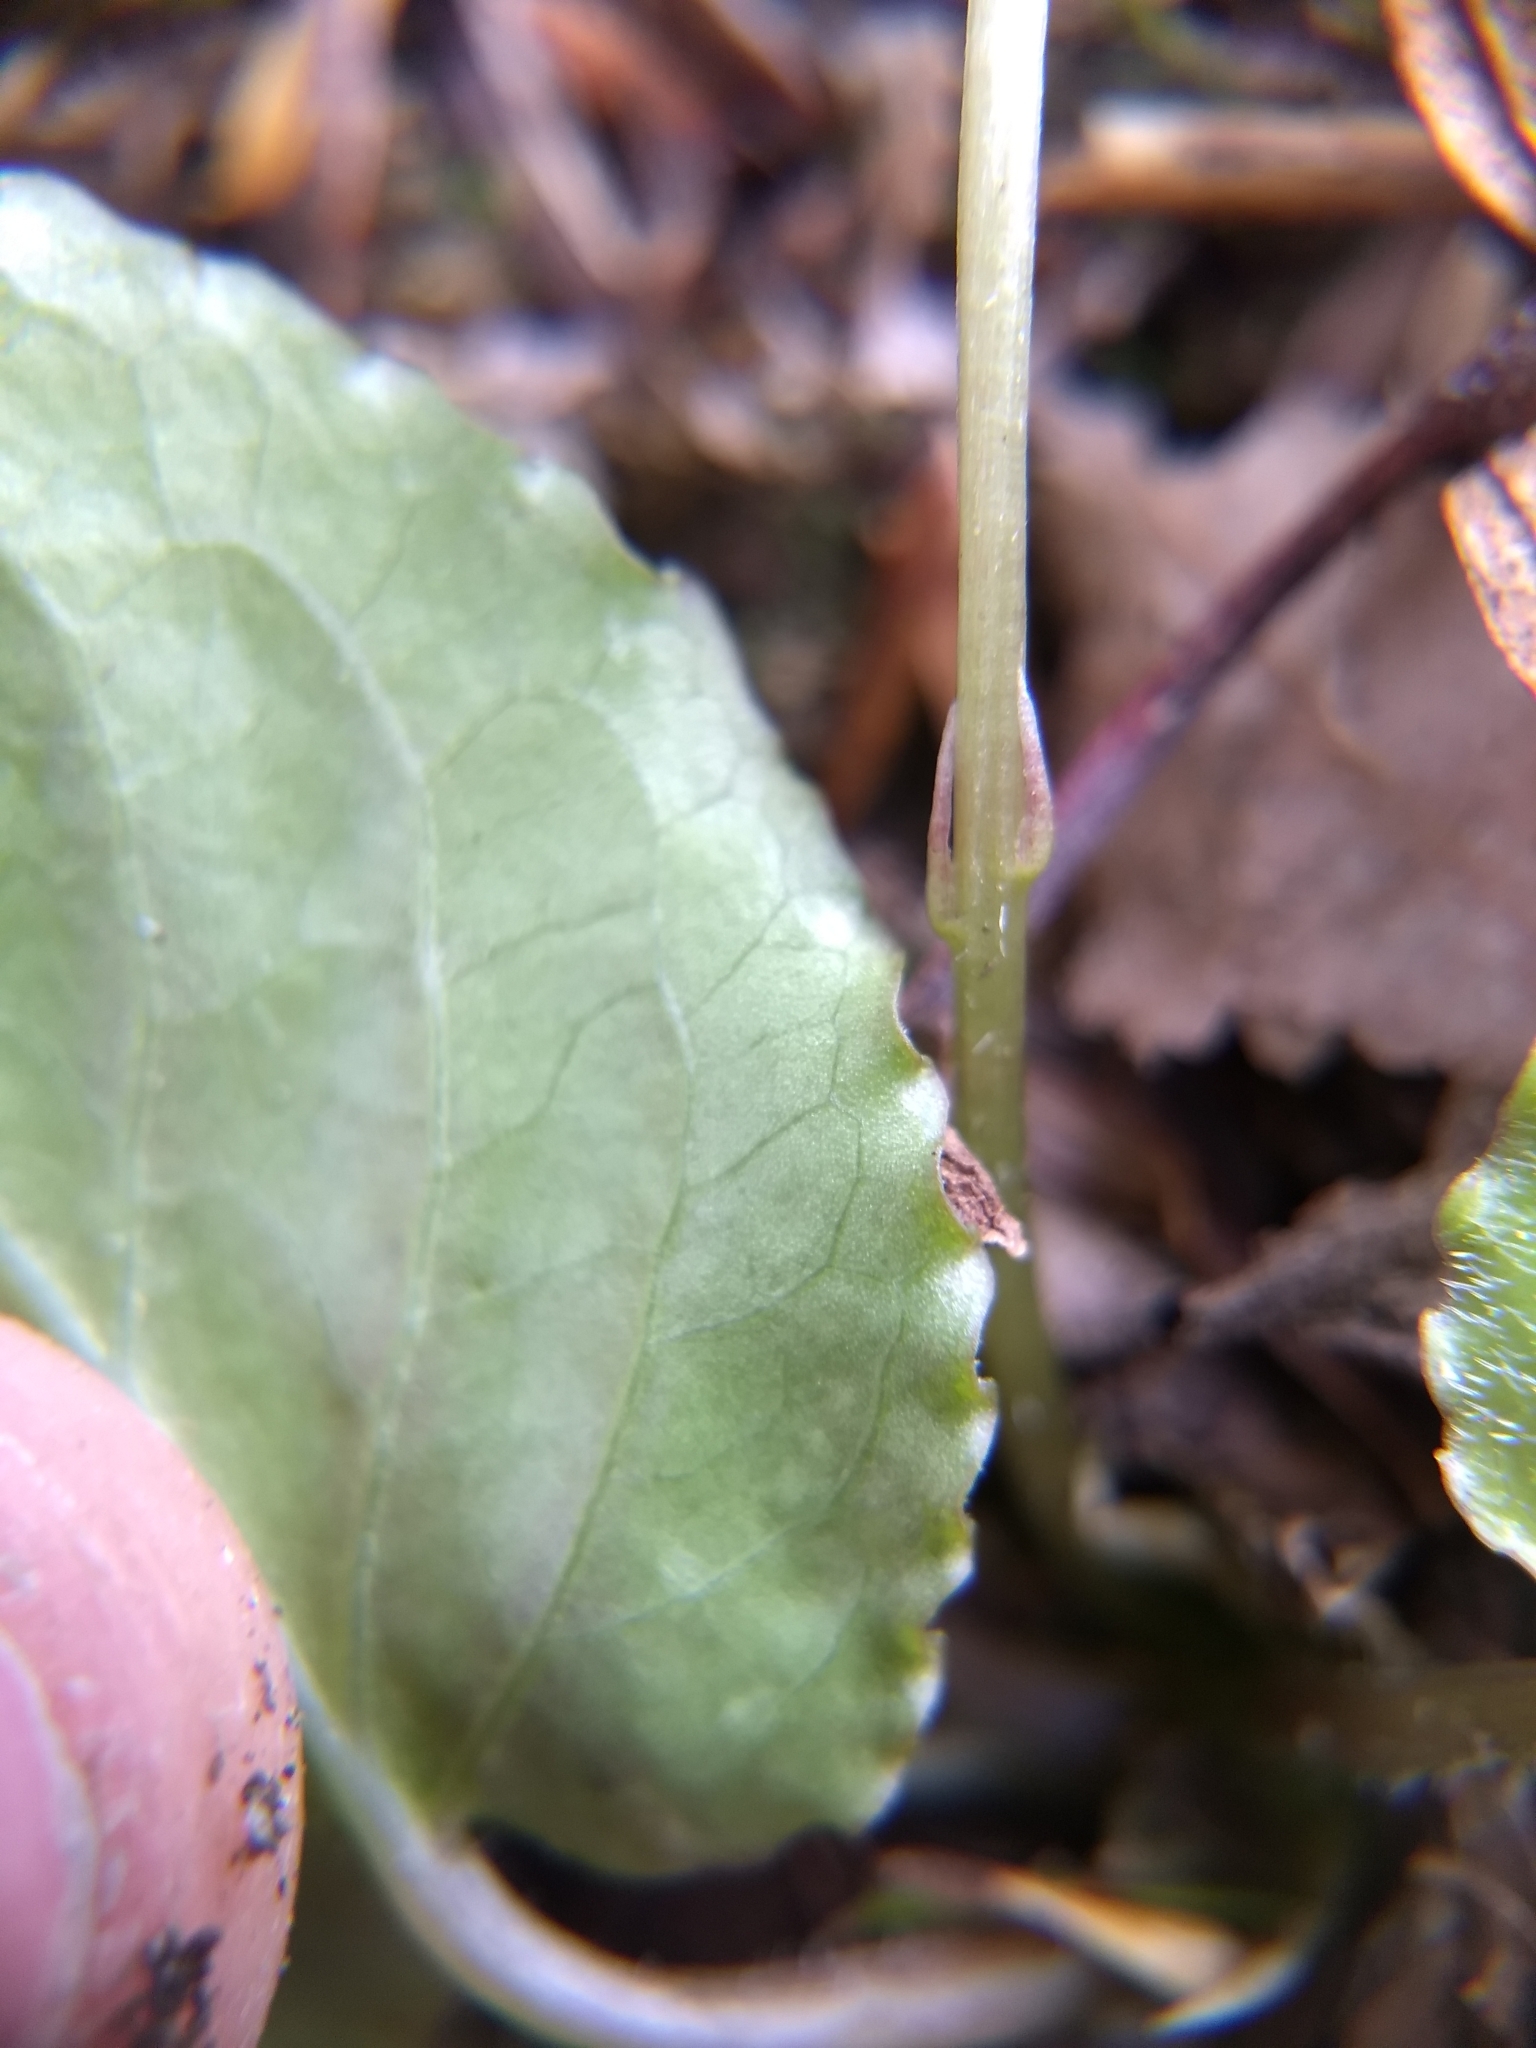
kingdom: Plantae
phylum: Tracheophyta
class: Magnoliopsida
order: Malpighiales
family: Violaceae
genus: Viola
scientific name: Viola rotundifolia
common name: Early yellow violet
